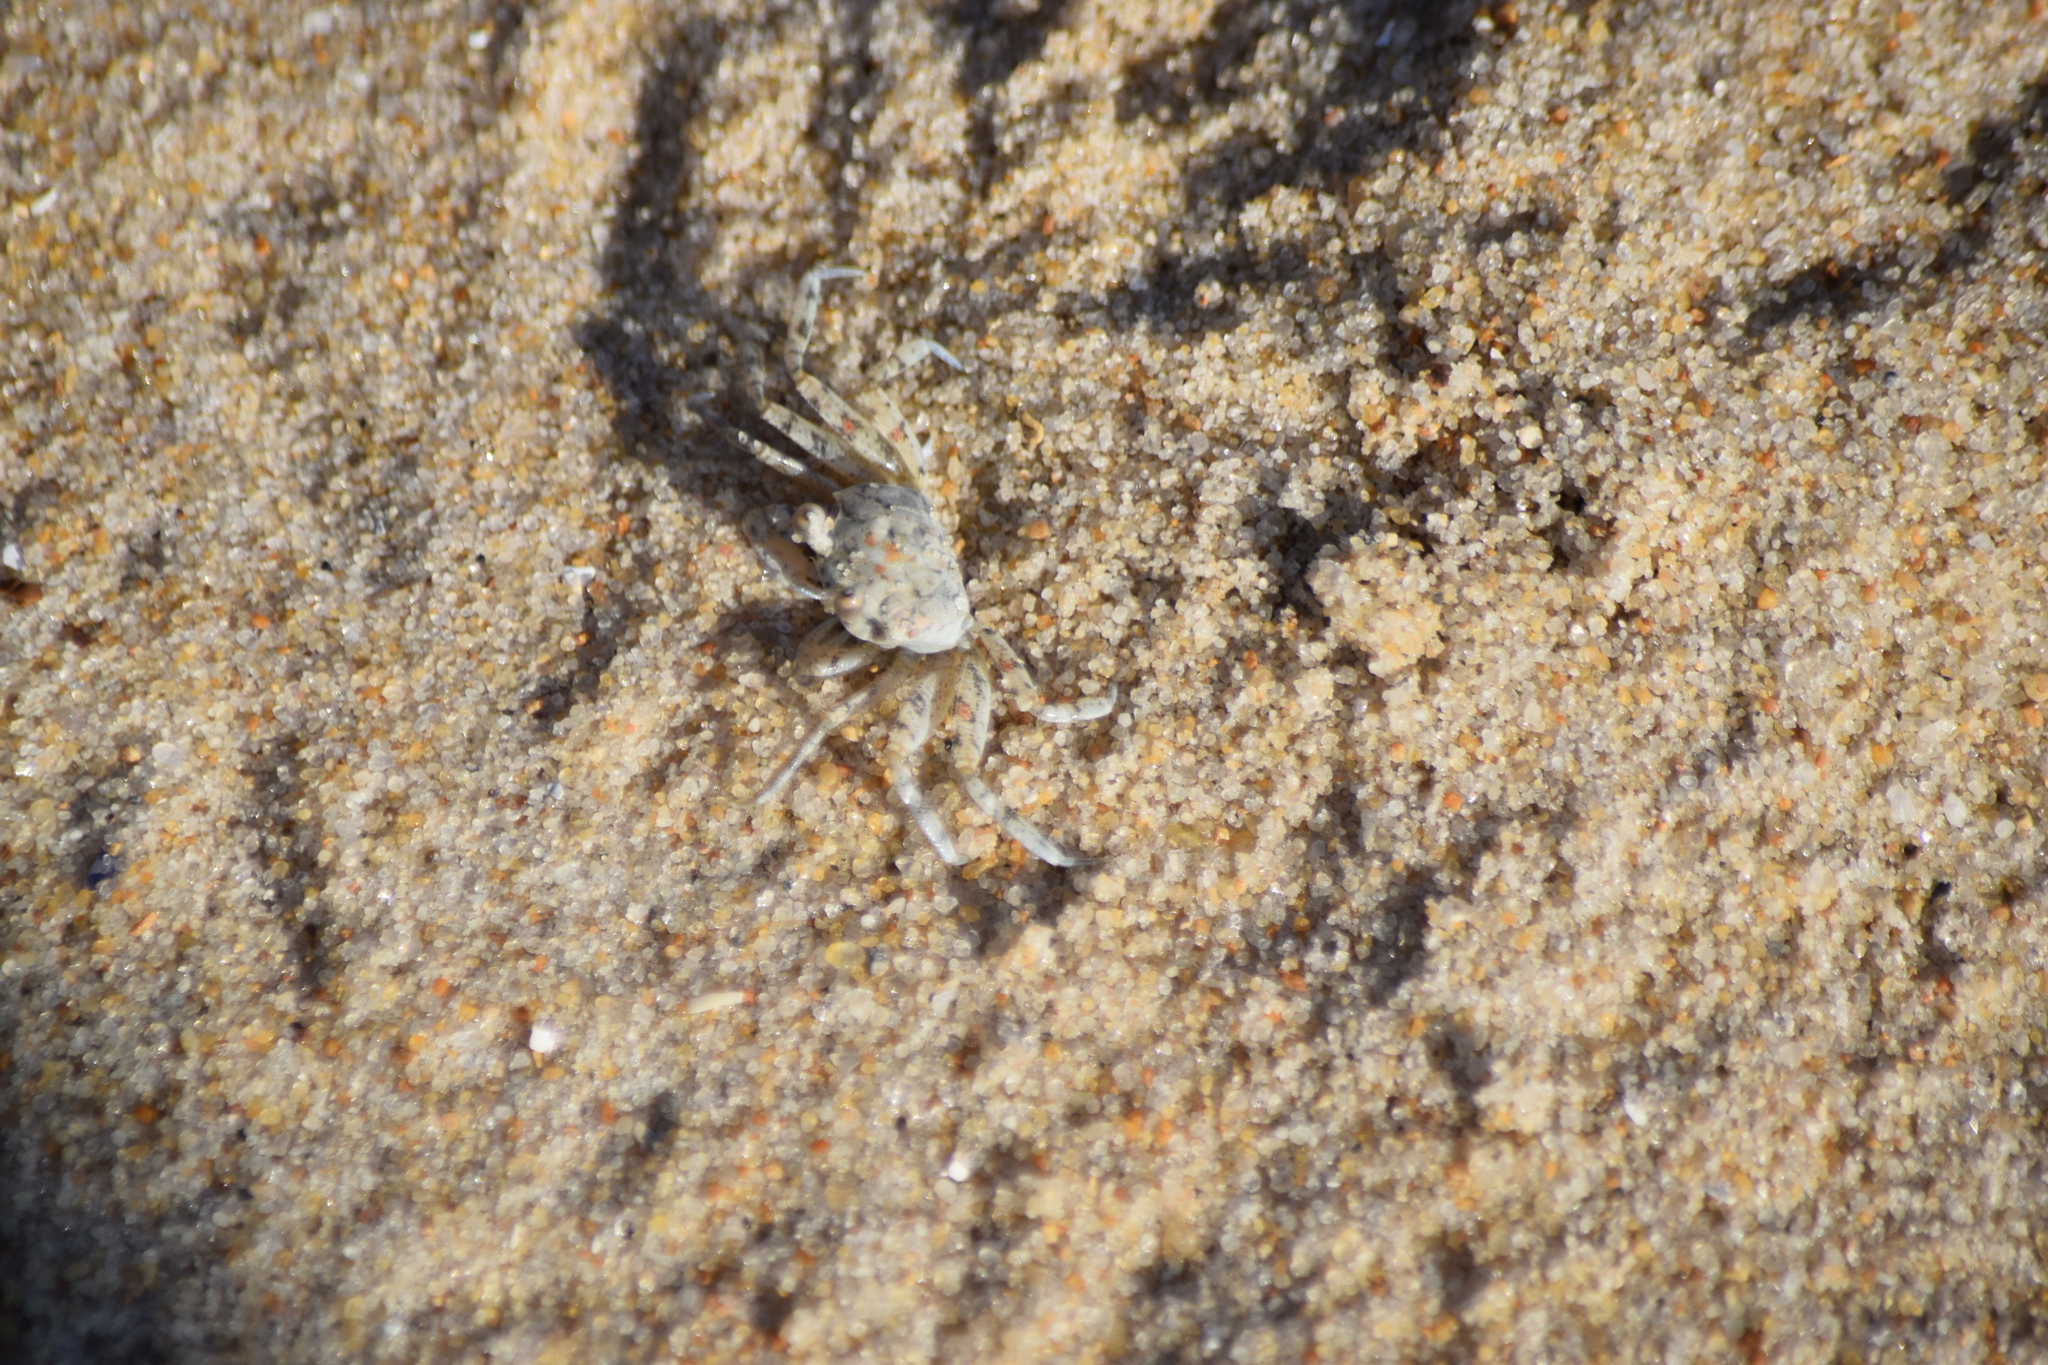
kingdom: Animalia
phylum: Arthropoda
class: Malacostraca
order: Decapoda
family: Ocypodidae
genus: Ocypode
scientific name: Ocypode quadrata
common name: Ghost crab
